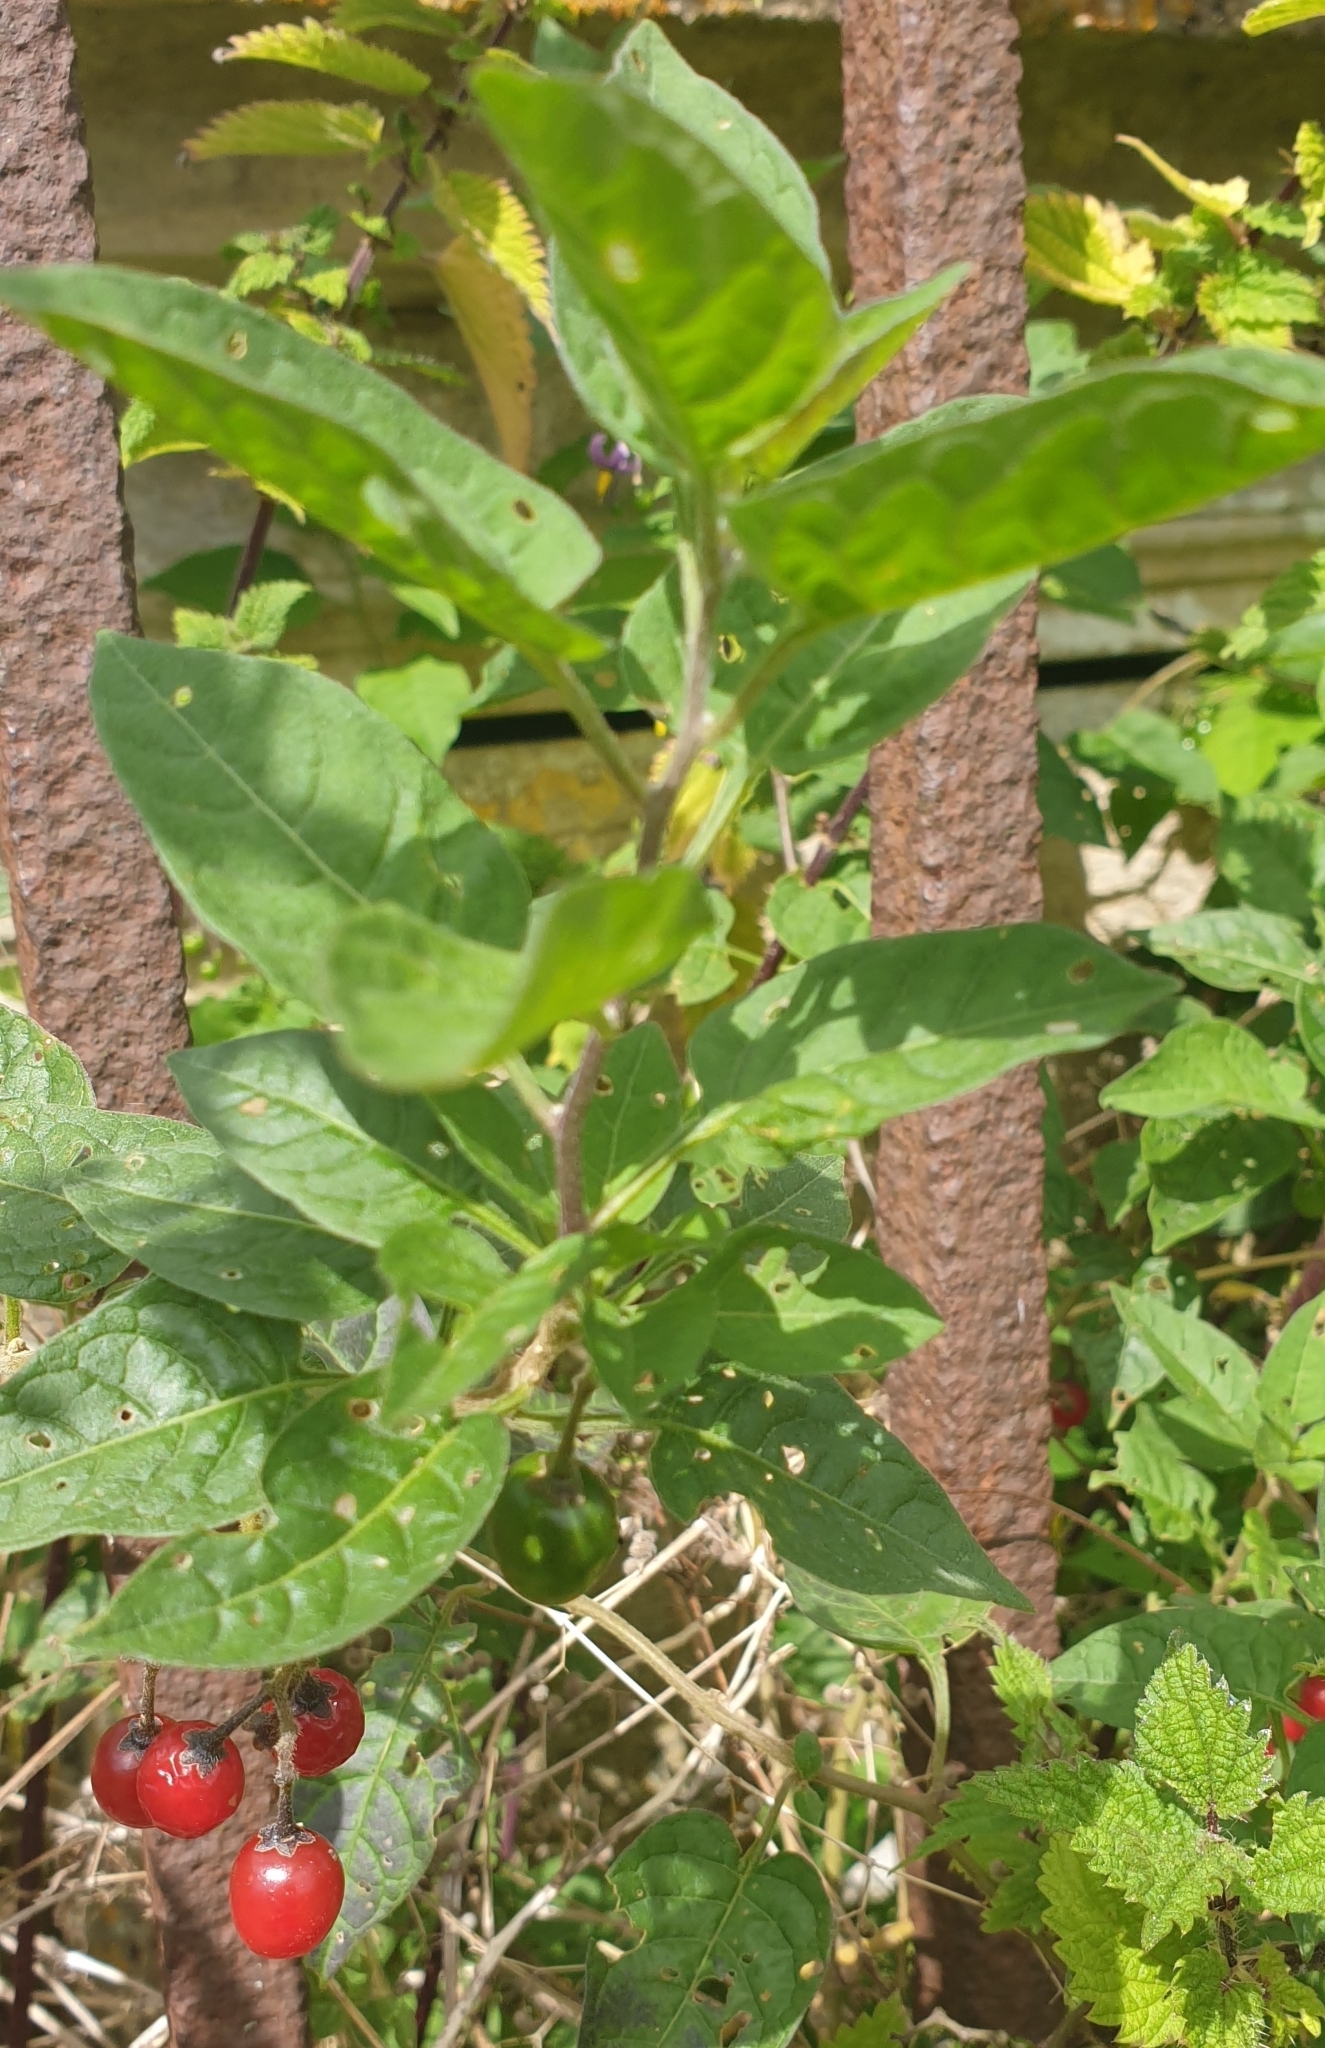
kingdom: Plantae
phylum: Tracheophyta
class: Magnoliopsida
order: Solanales
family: Solanaceae
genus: Solanum
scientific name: Solanum dulcamara
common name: Climbing nightshade
